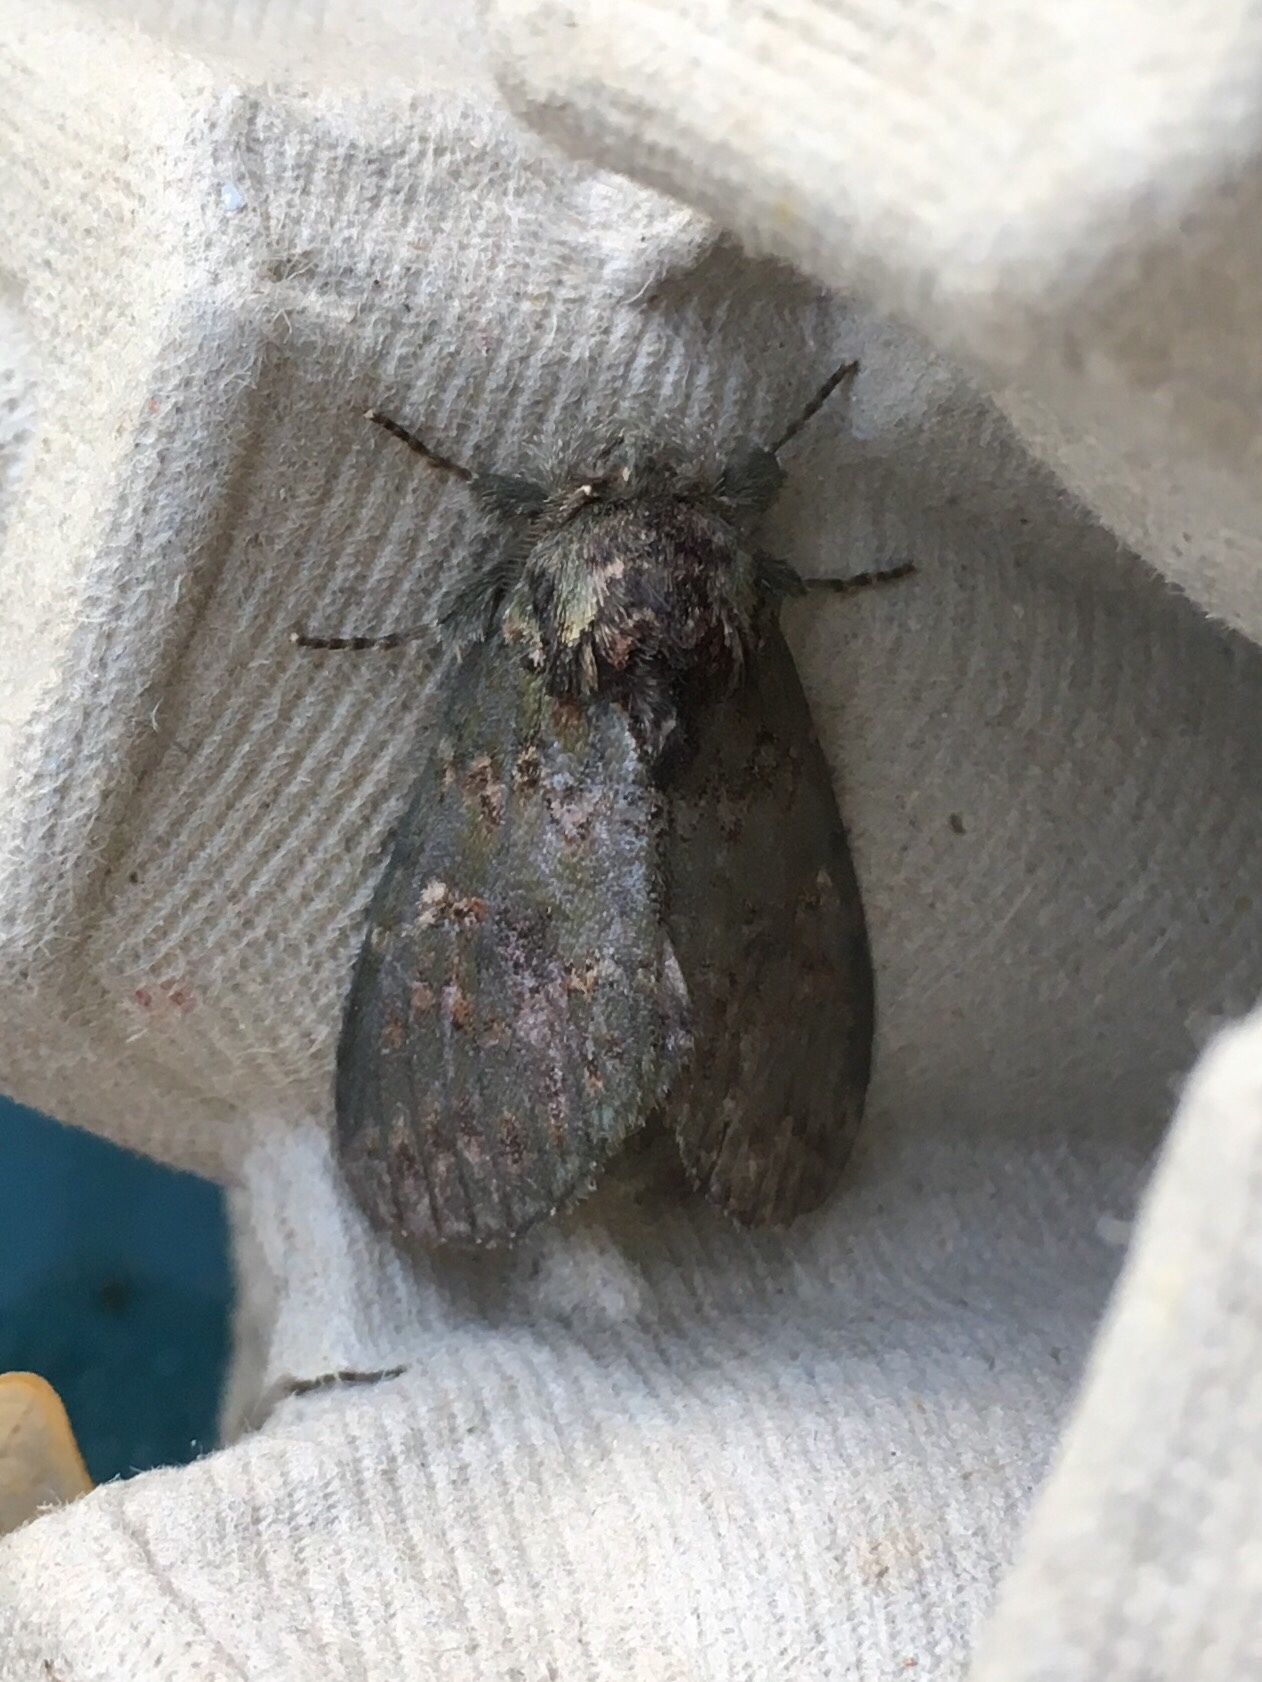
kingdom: Animalia
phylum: Arthropoda
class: Insecta
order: Lepidoptera
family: Notodontidae
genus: Disphragis
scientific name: Disphragis Cecrita biundata
